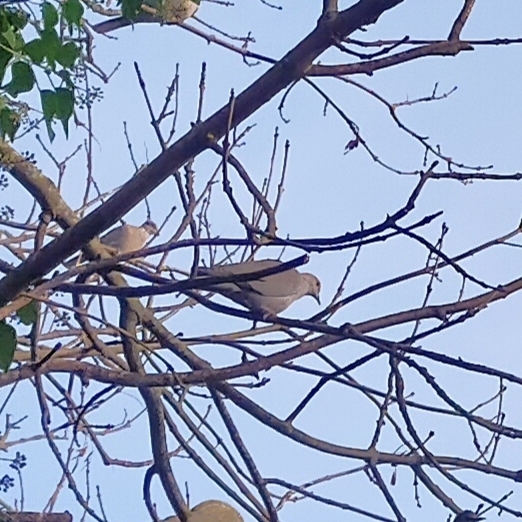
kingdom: Animalia
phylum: Chordata
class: Aves
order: Columbiformes
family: Columbidae
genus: Streptopelia
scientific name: Streptopelia decaocto
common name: Eurasian collared dove
